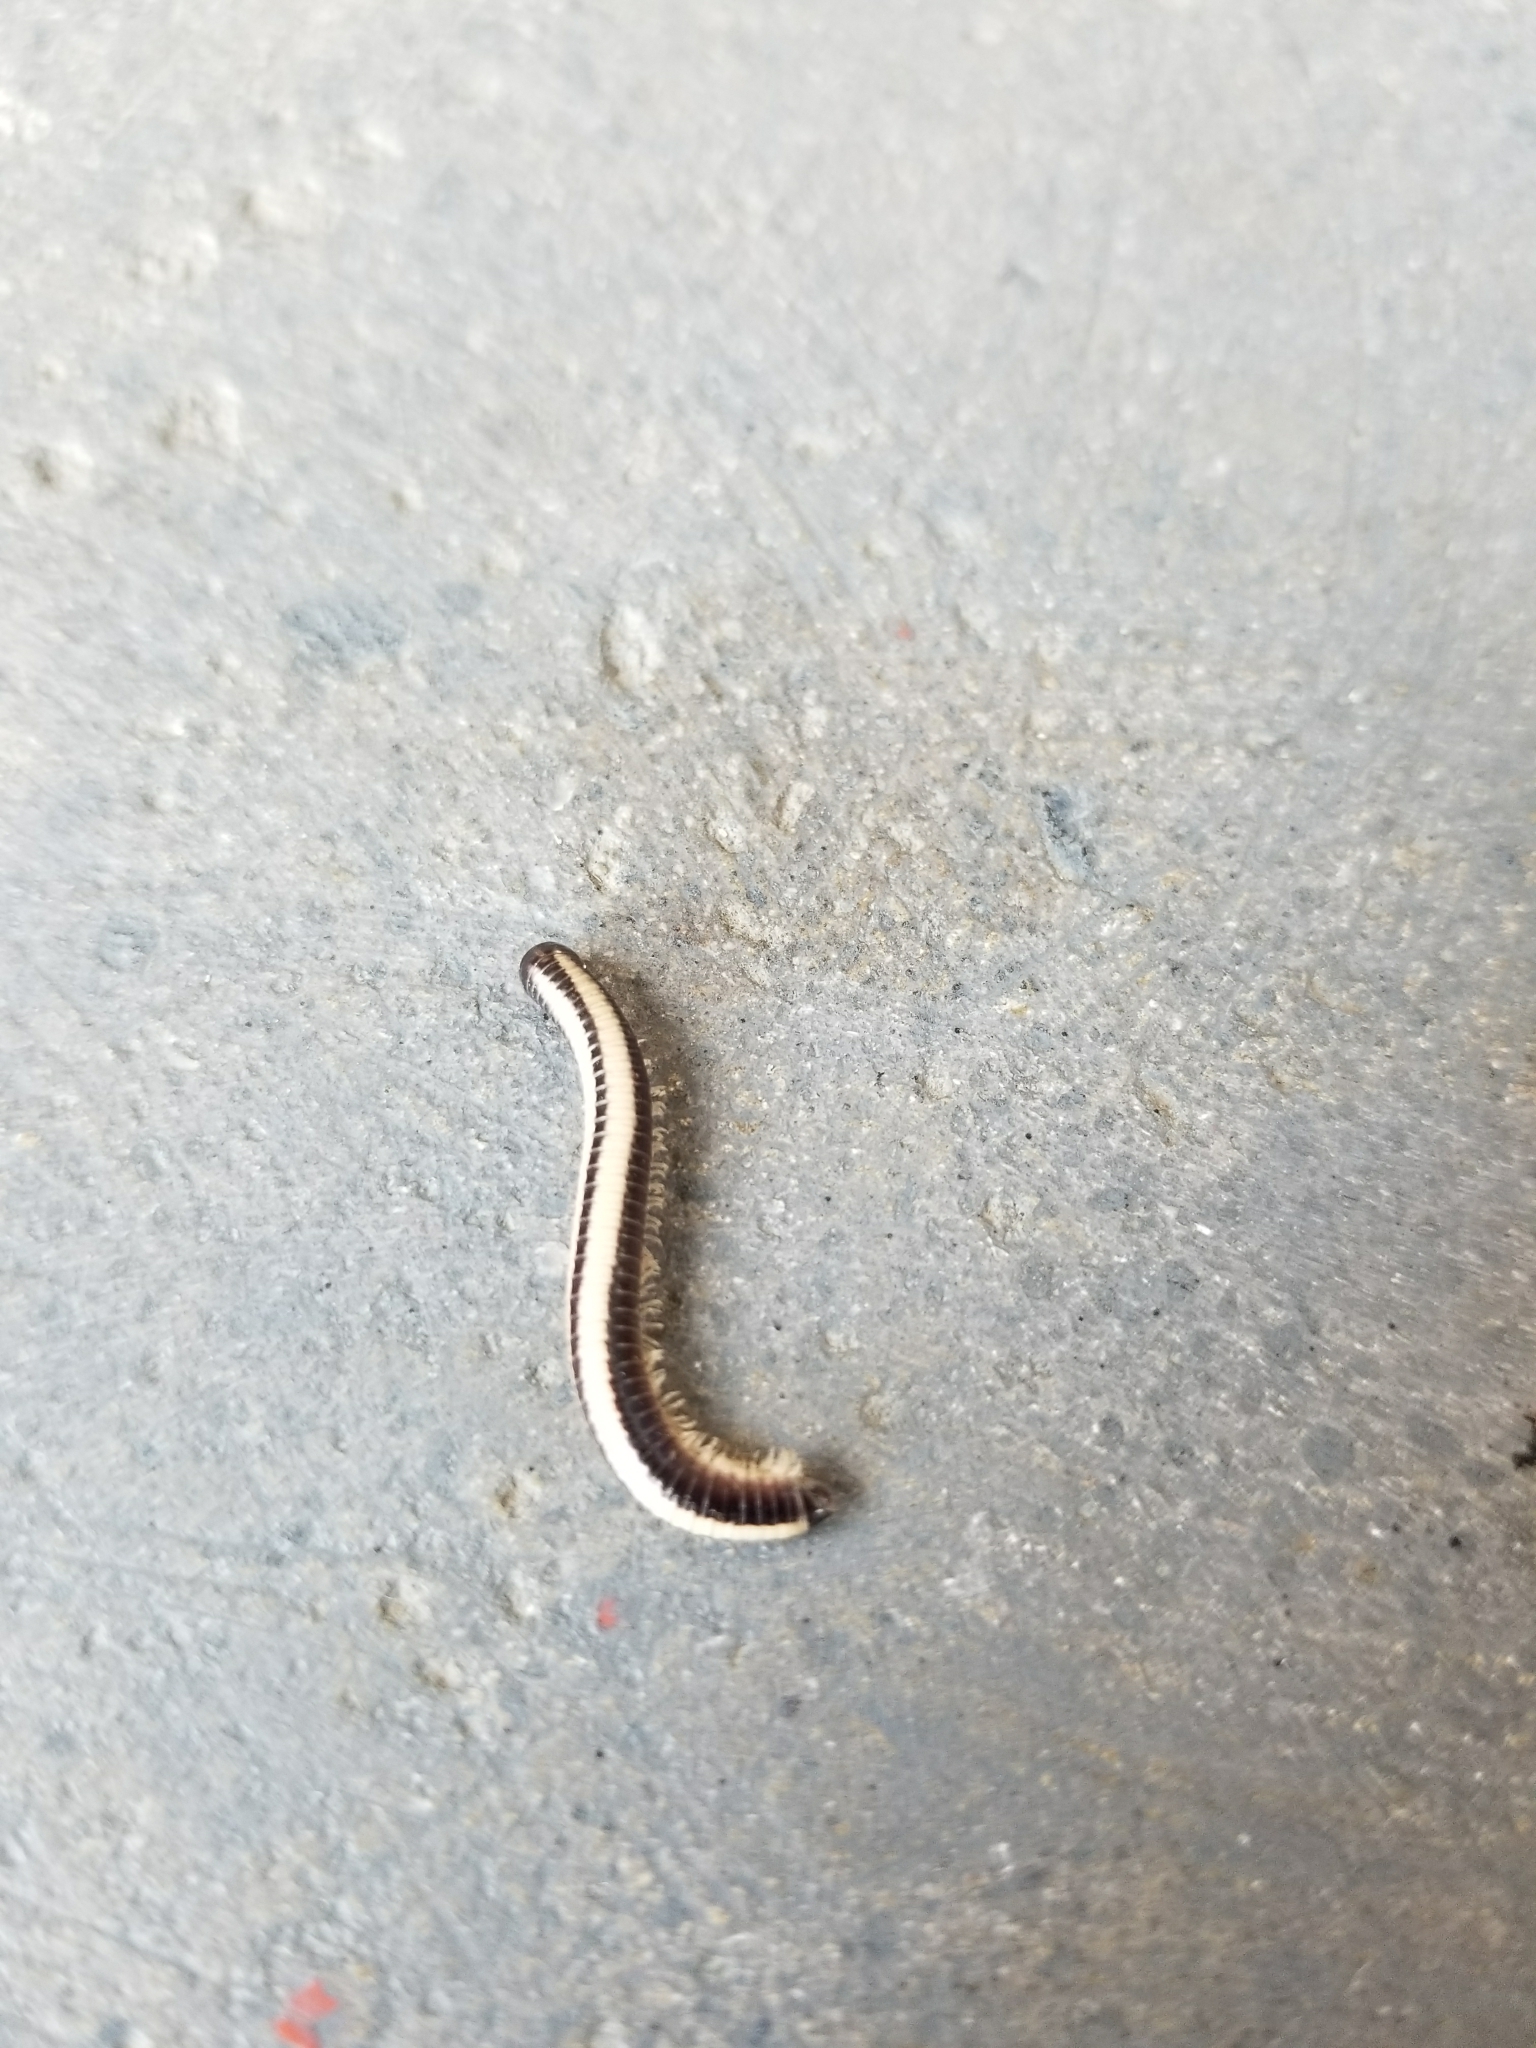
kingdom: Animalia
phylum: Arthropoda
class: Diplopoda
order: Spirobolida
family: Spirobolellidae
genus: Spirobolellus
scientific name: Spirobolellus immigrans
